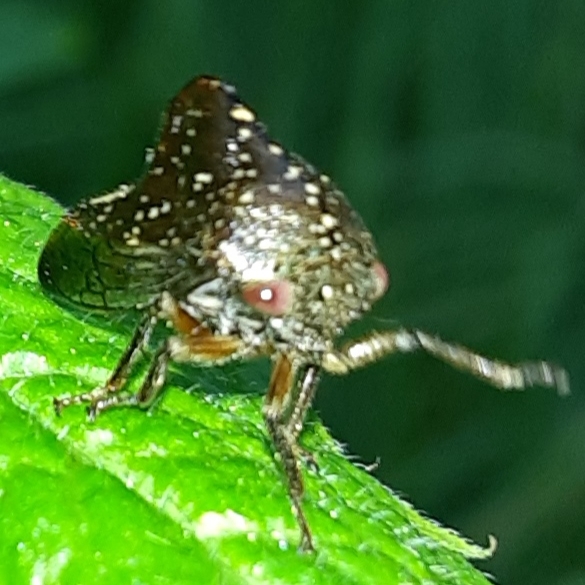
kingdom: Animalia
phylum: Arthropoda
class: Insecta
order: Hemiptera
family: Membracidae
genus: Telamona
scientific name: Telamona monticola
